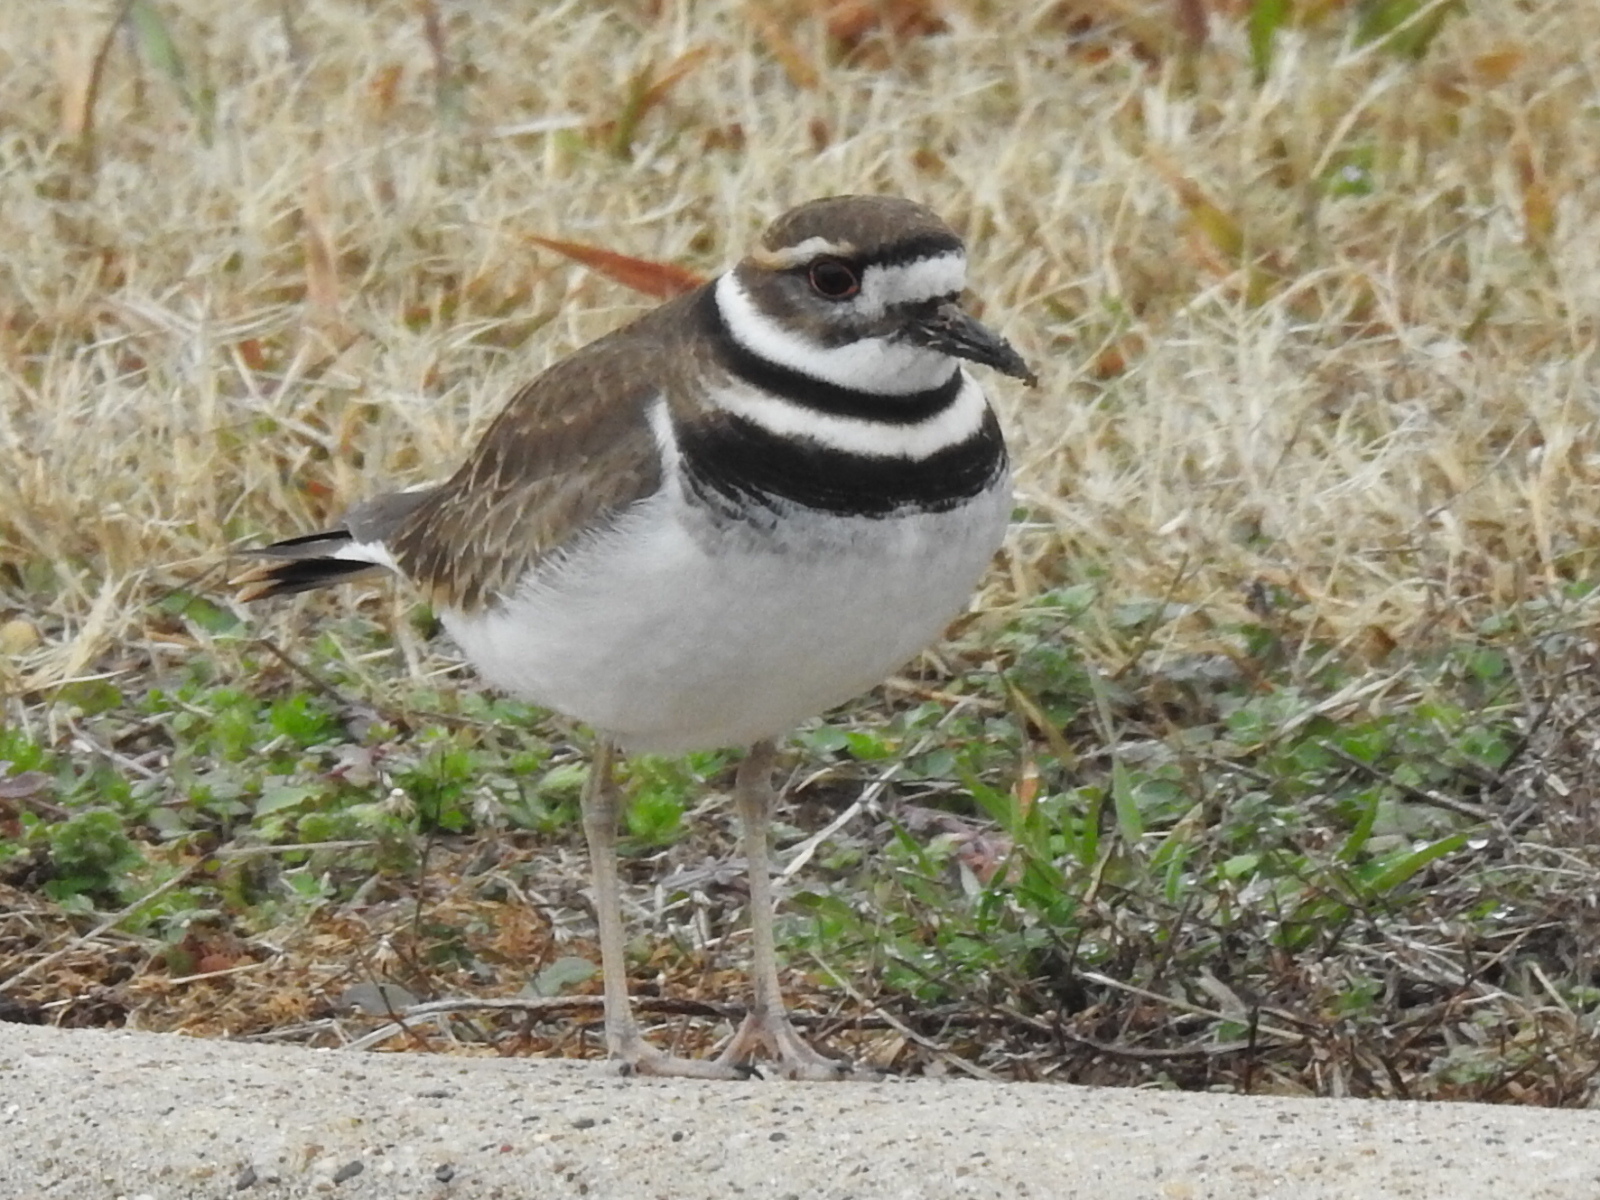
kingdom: Animalia
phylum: Chordata
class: Aves
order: Charadriiformes
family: Charadriidae
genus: Charadrius
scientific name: Charadrius vociferus
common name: Killdeer
